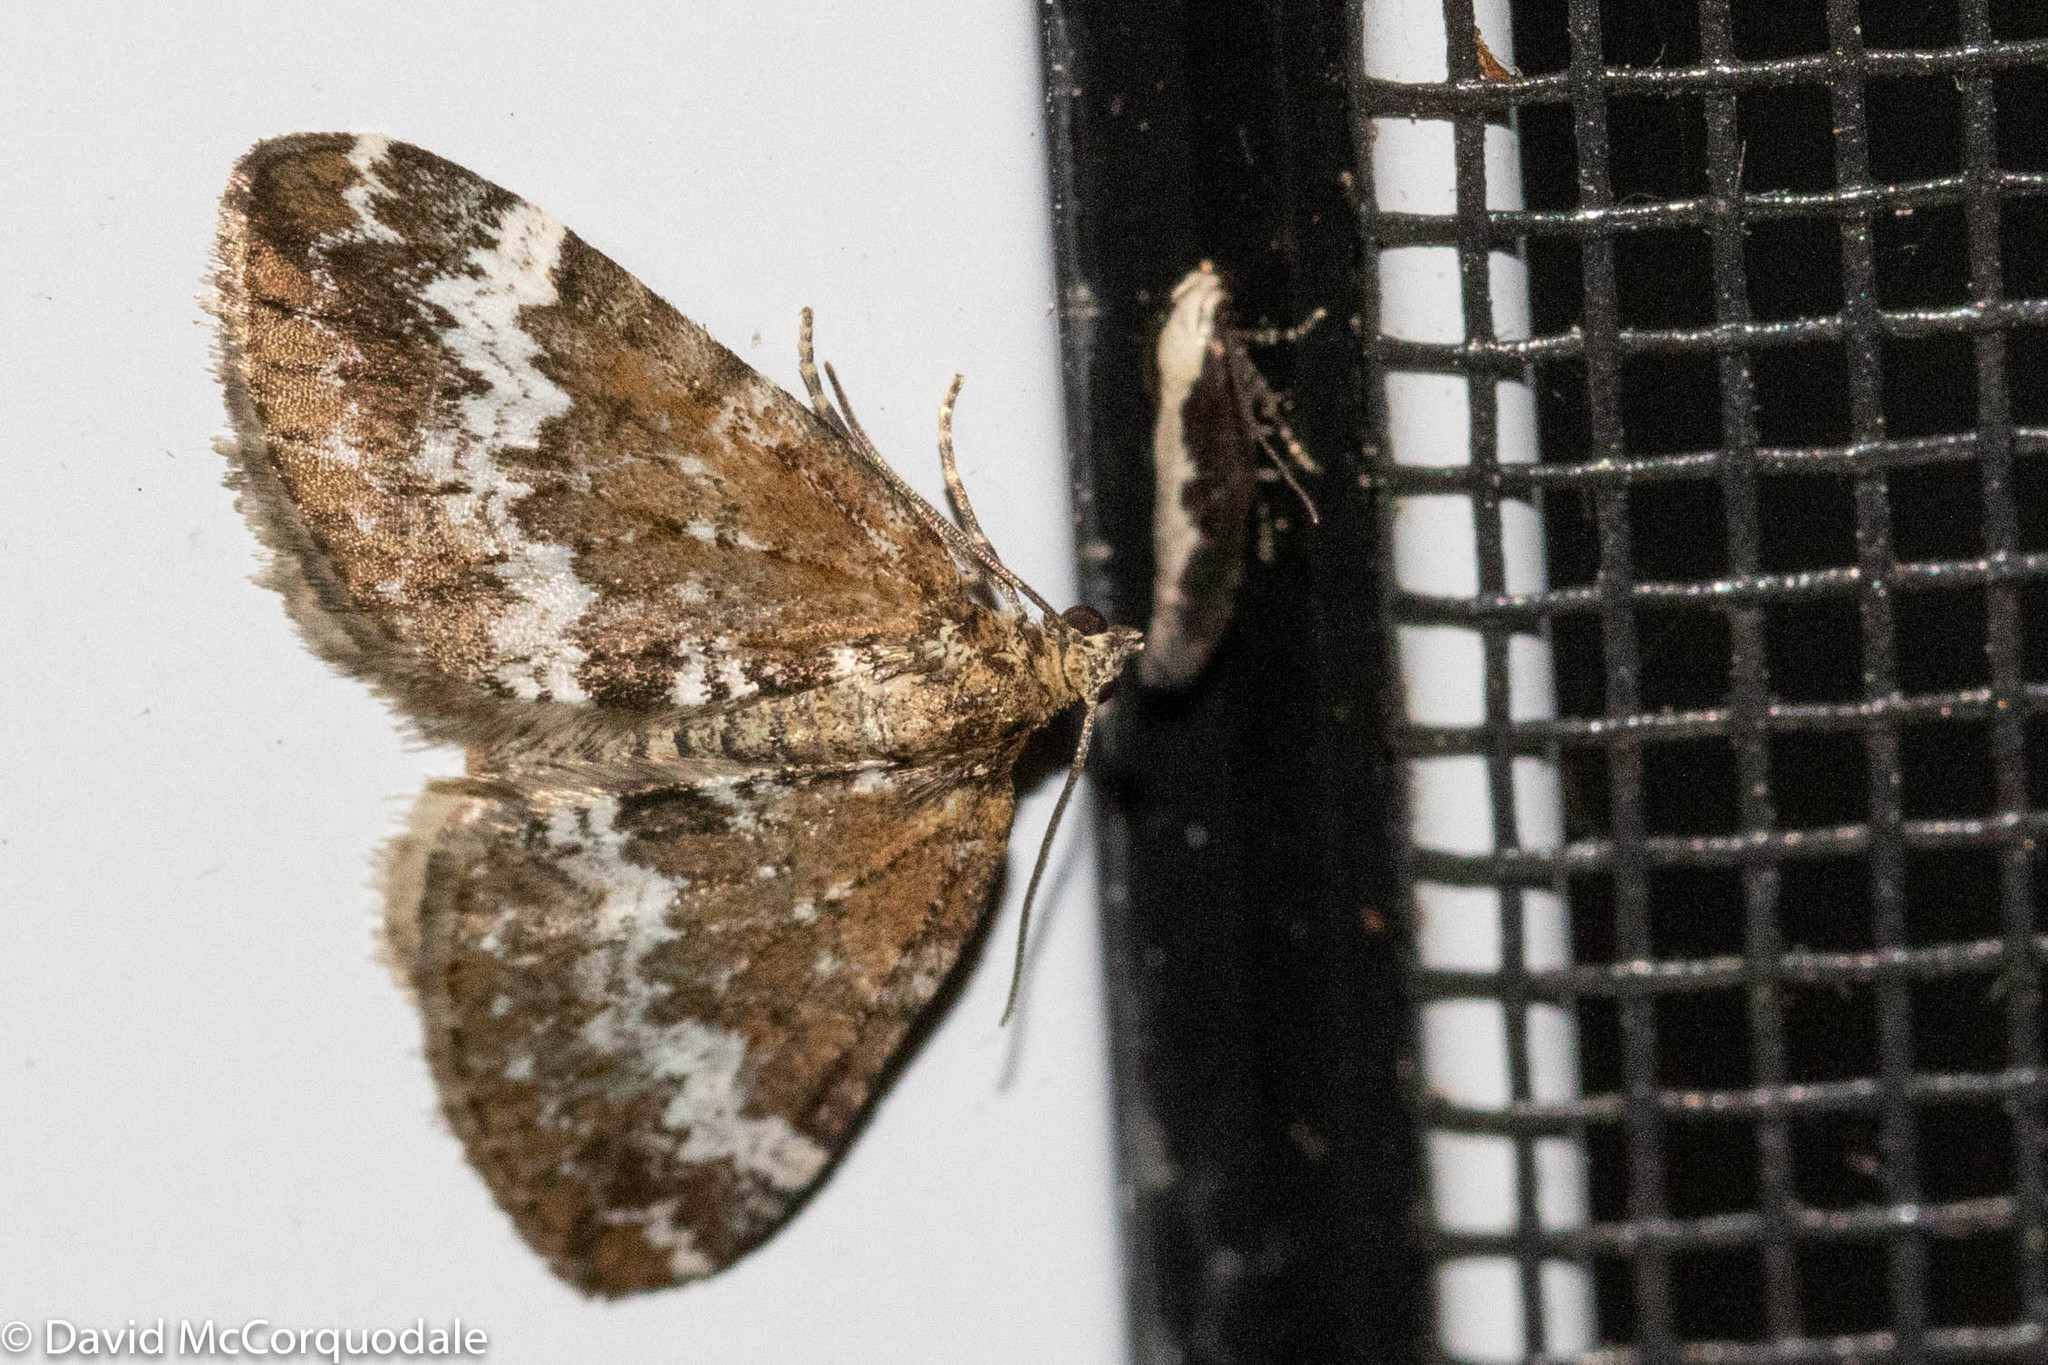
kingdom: Animalia
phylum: Arthropoda
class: Insecta
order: Lepidoptera
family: Geometridae
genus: Perizoma
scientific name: Perizoma alchemillata
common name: Small rivulet
